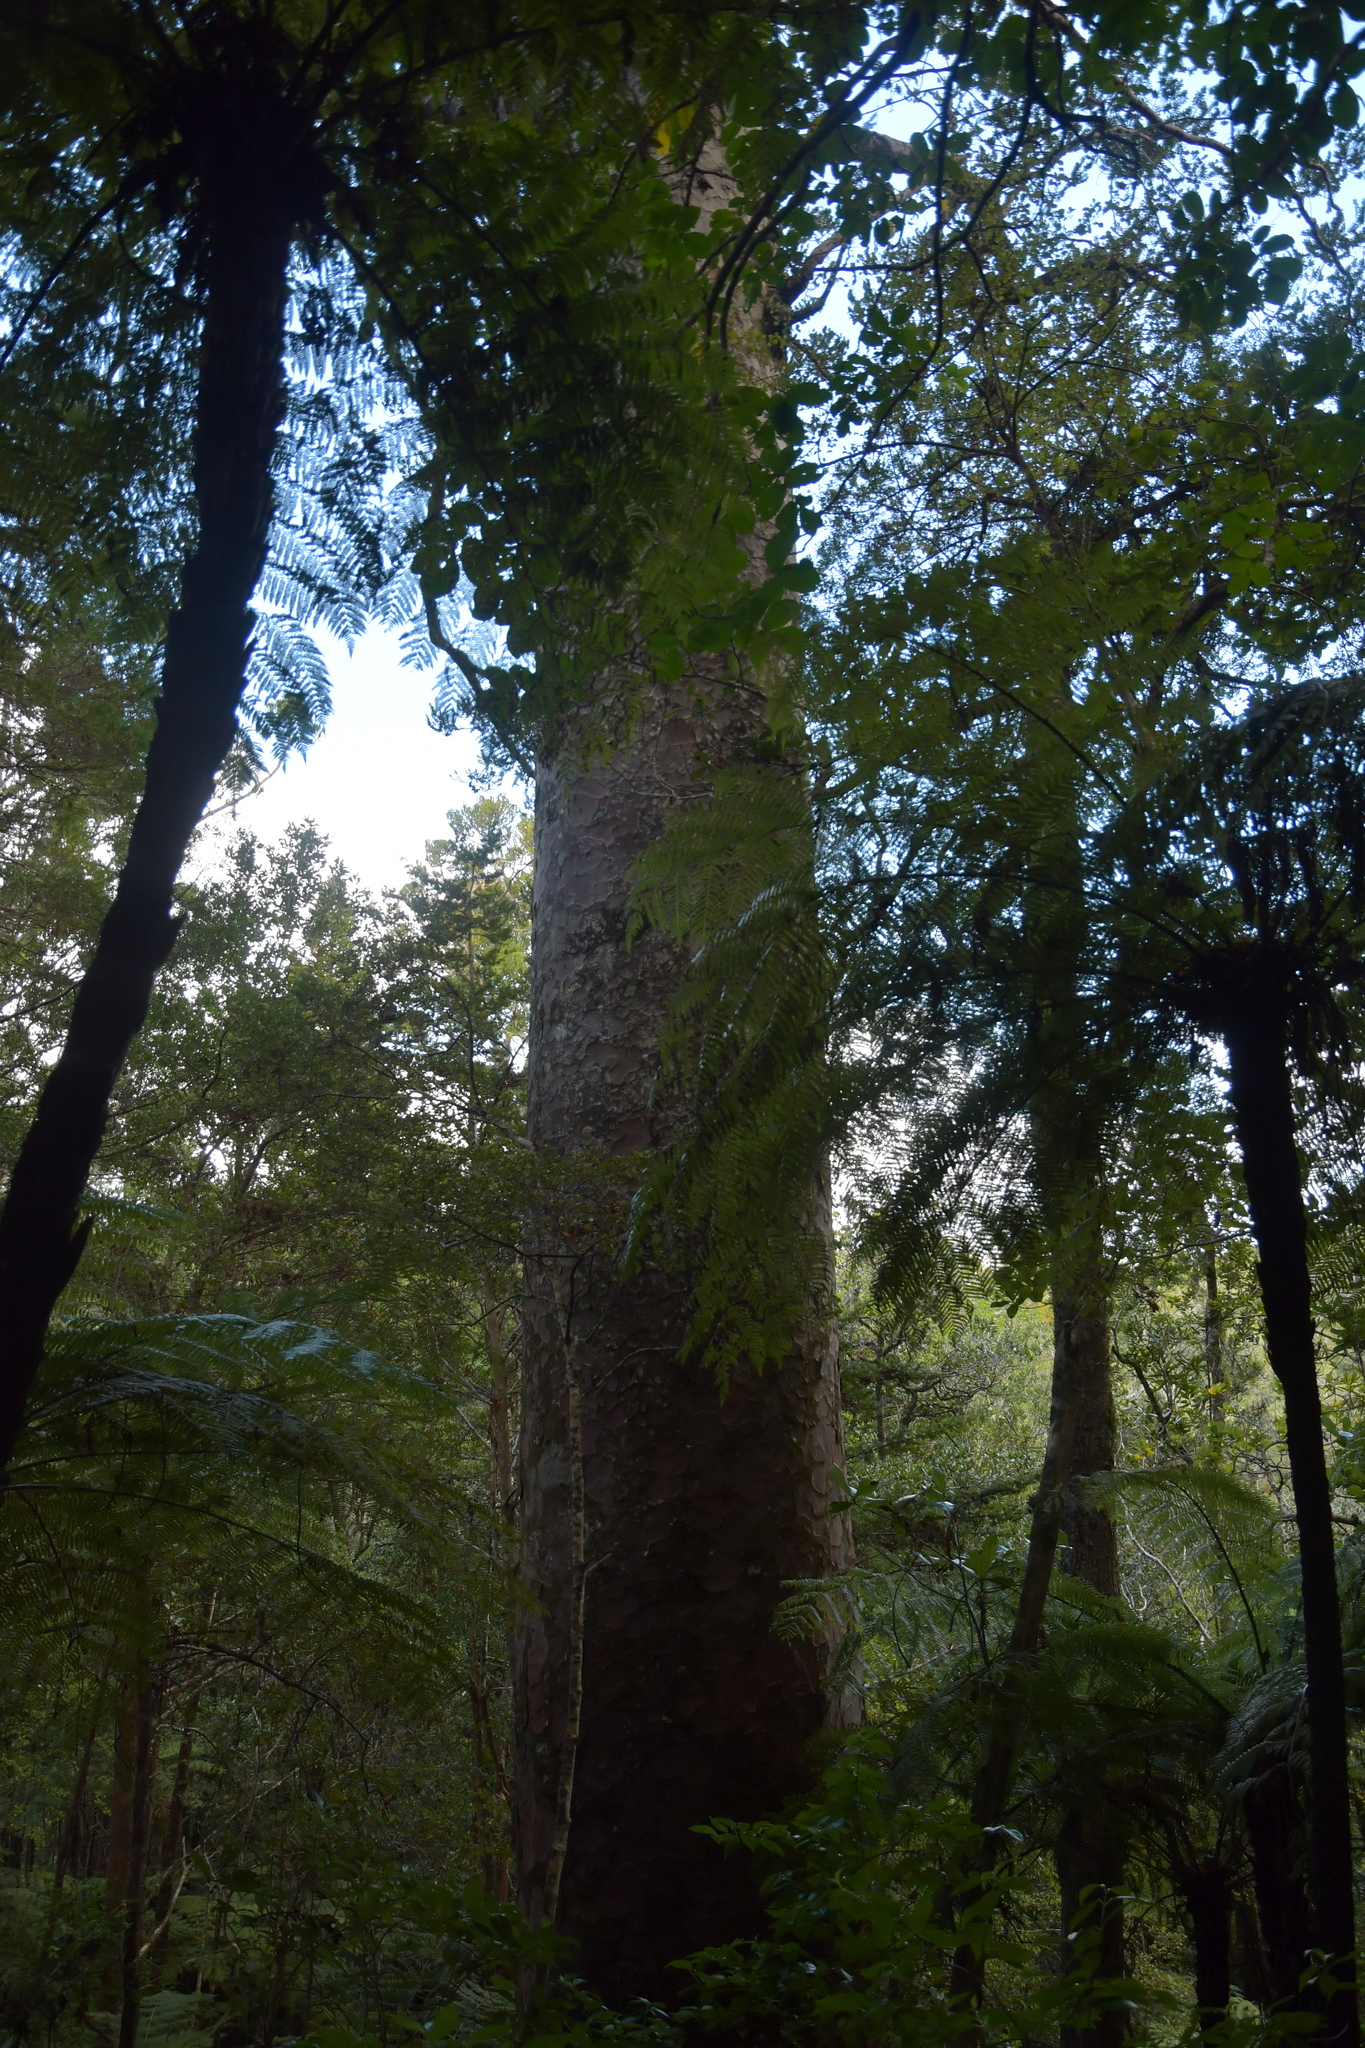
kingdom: Plantae
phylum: Tracheophyta
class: Pinopsida
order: Pinales
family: Araucariaceae
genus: Agathis
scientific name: Agathis australis
